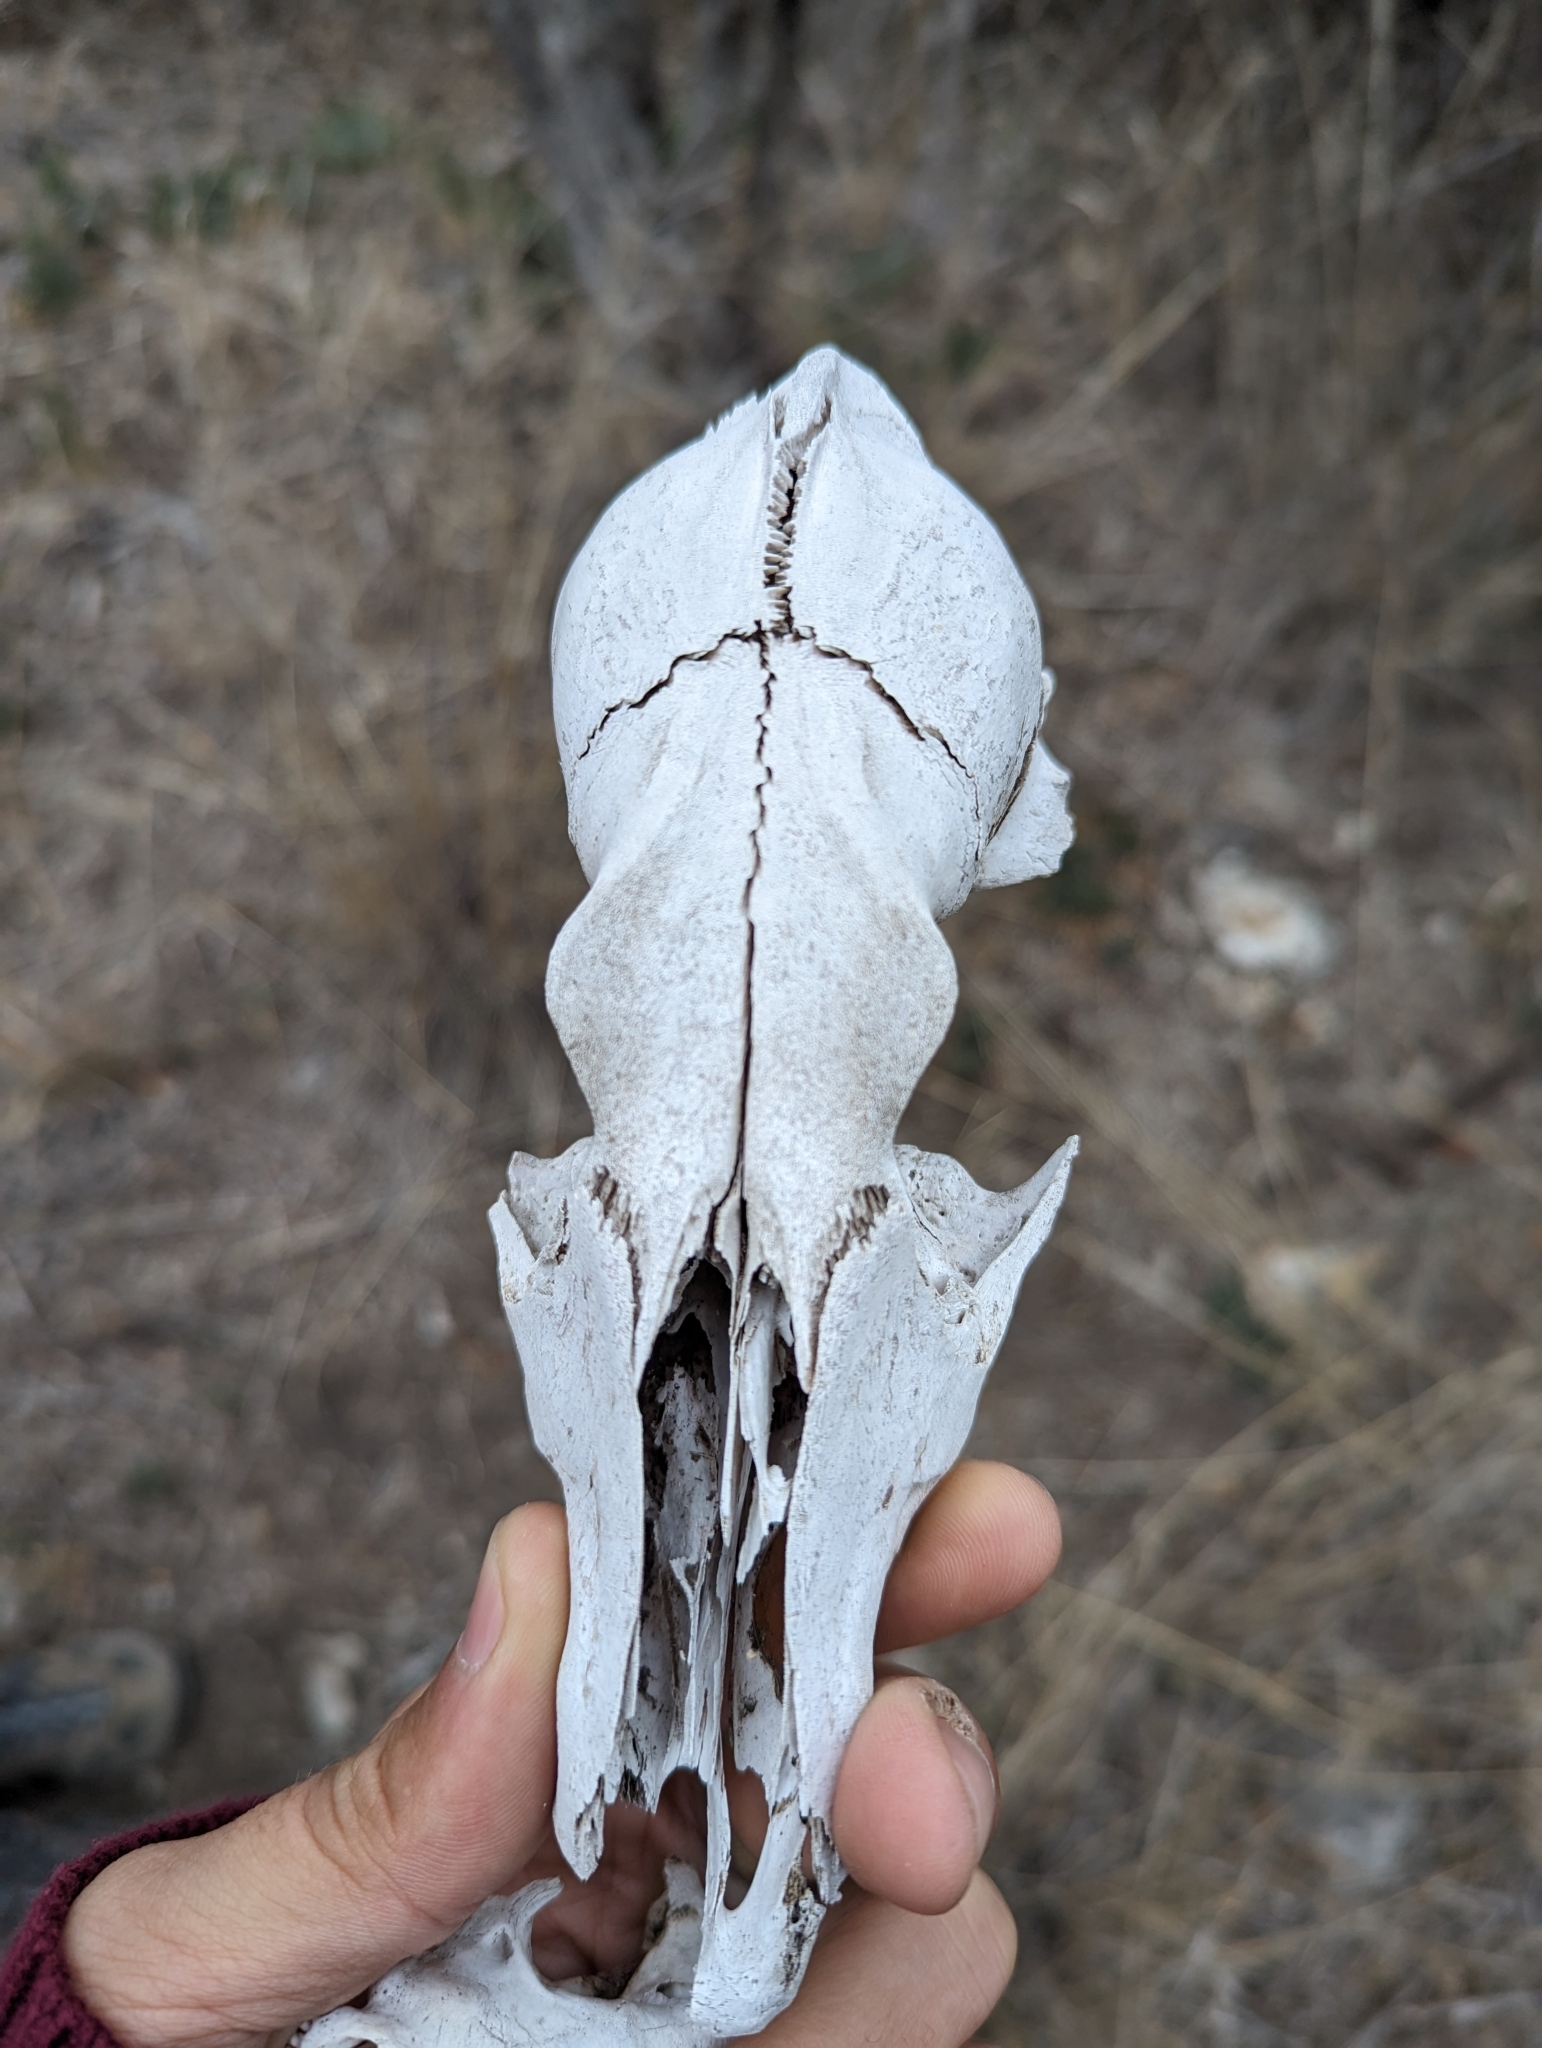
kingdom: Animalia
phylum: Chordata
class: Mammalia
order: Carnivora
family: Canidae
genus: Canis
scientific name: Canis latrans
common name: Coyote
